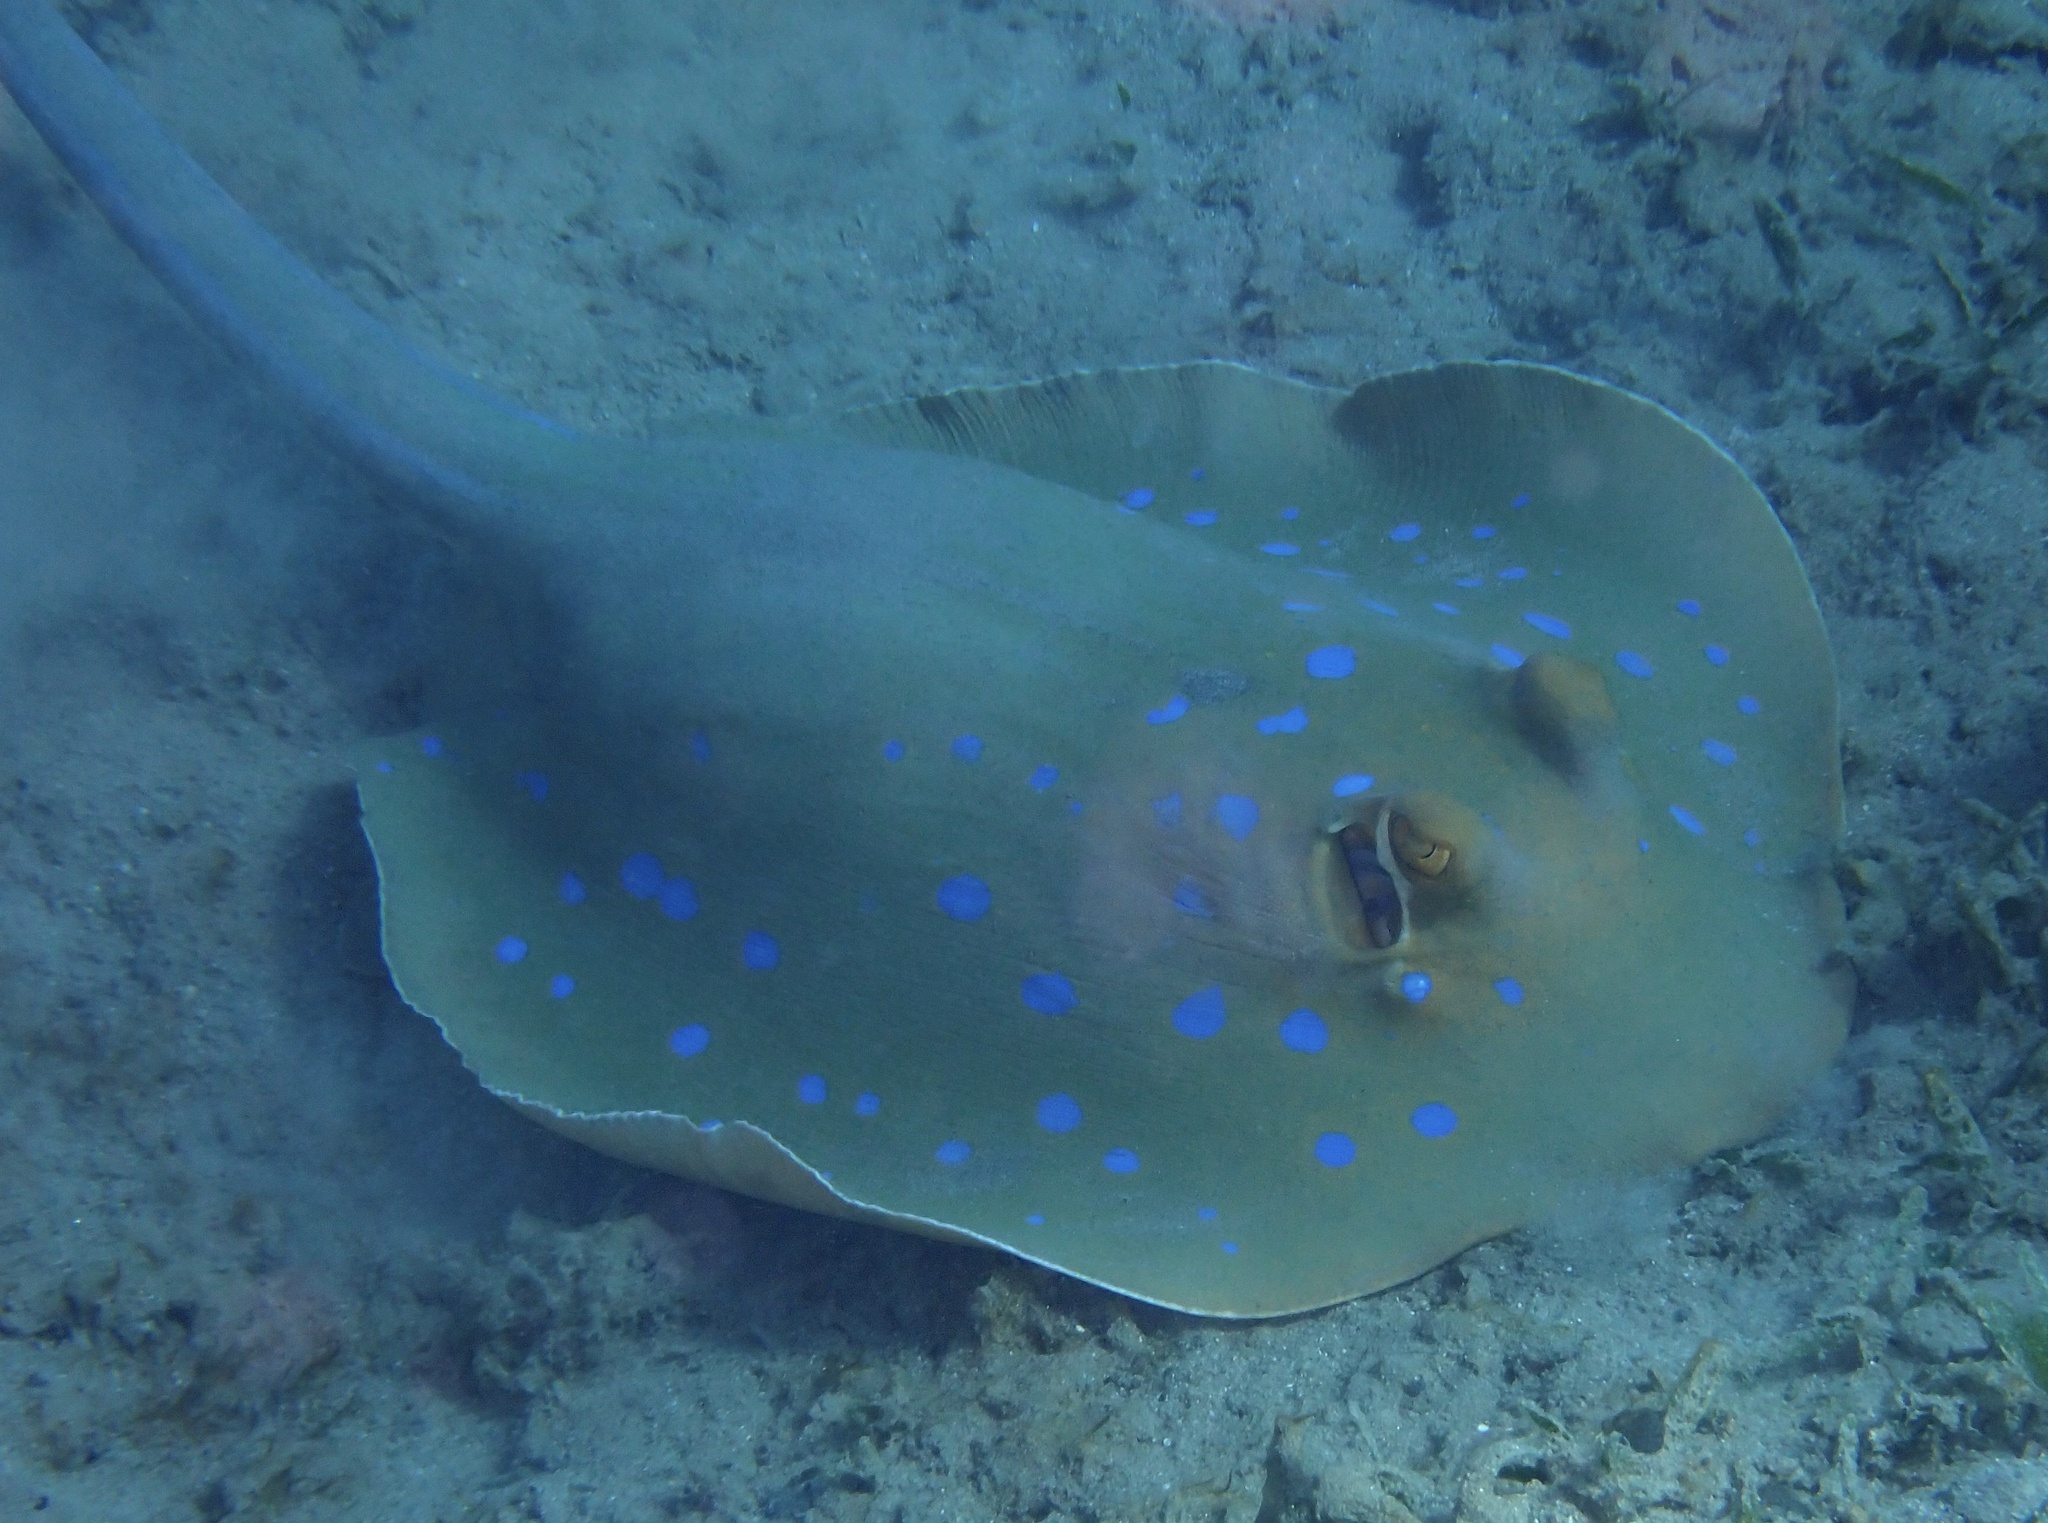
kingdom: Animalia
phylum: Chordata
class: Elasmobranchii
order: Myliobatiformes
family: Dasyatidae
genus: Taeniura
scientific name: Taeniura lymma
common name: Bluespotted ribbontail ray
